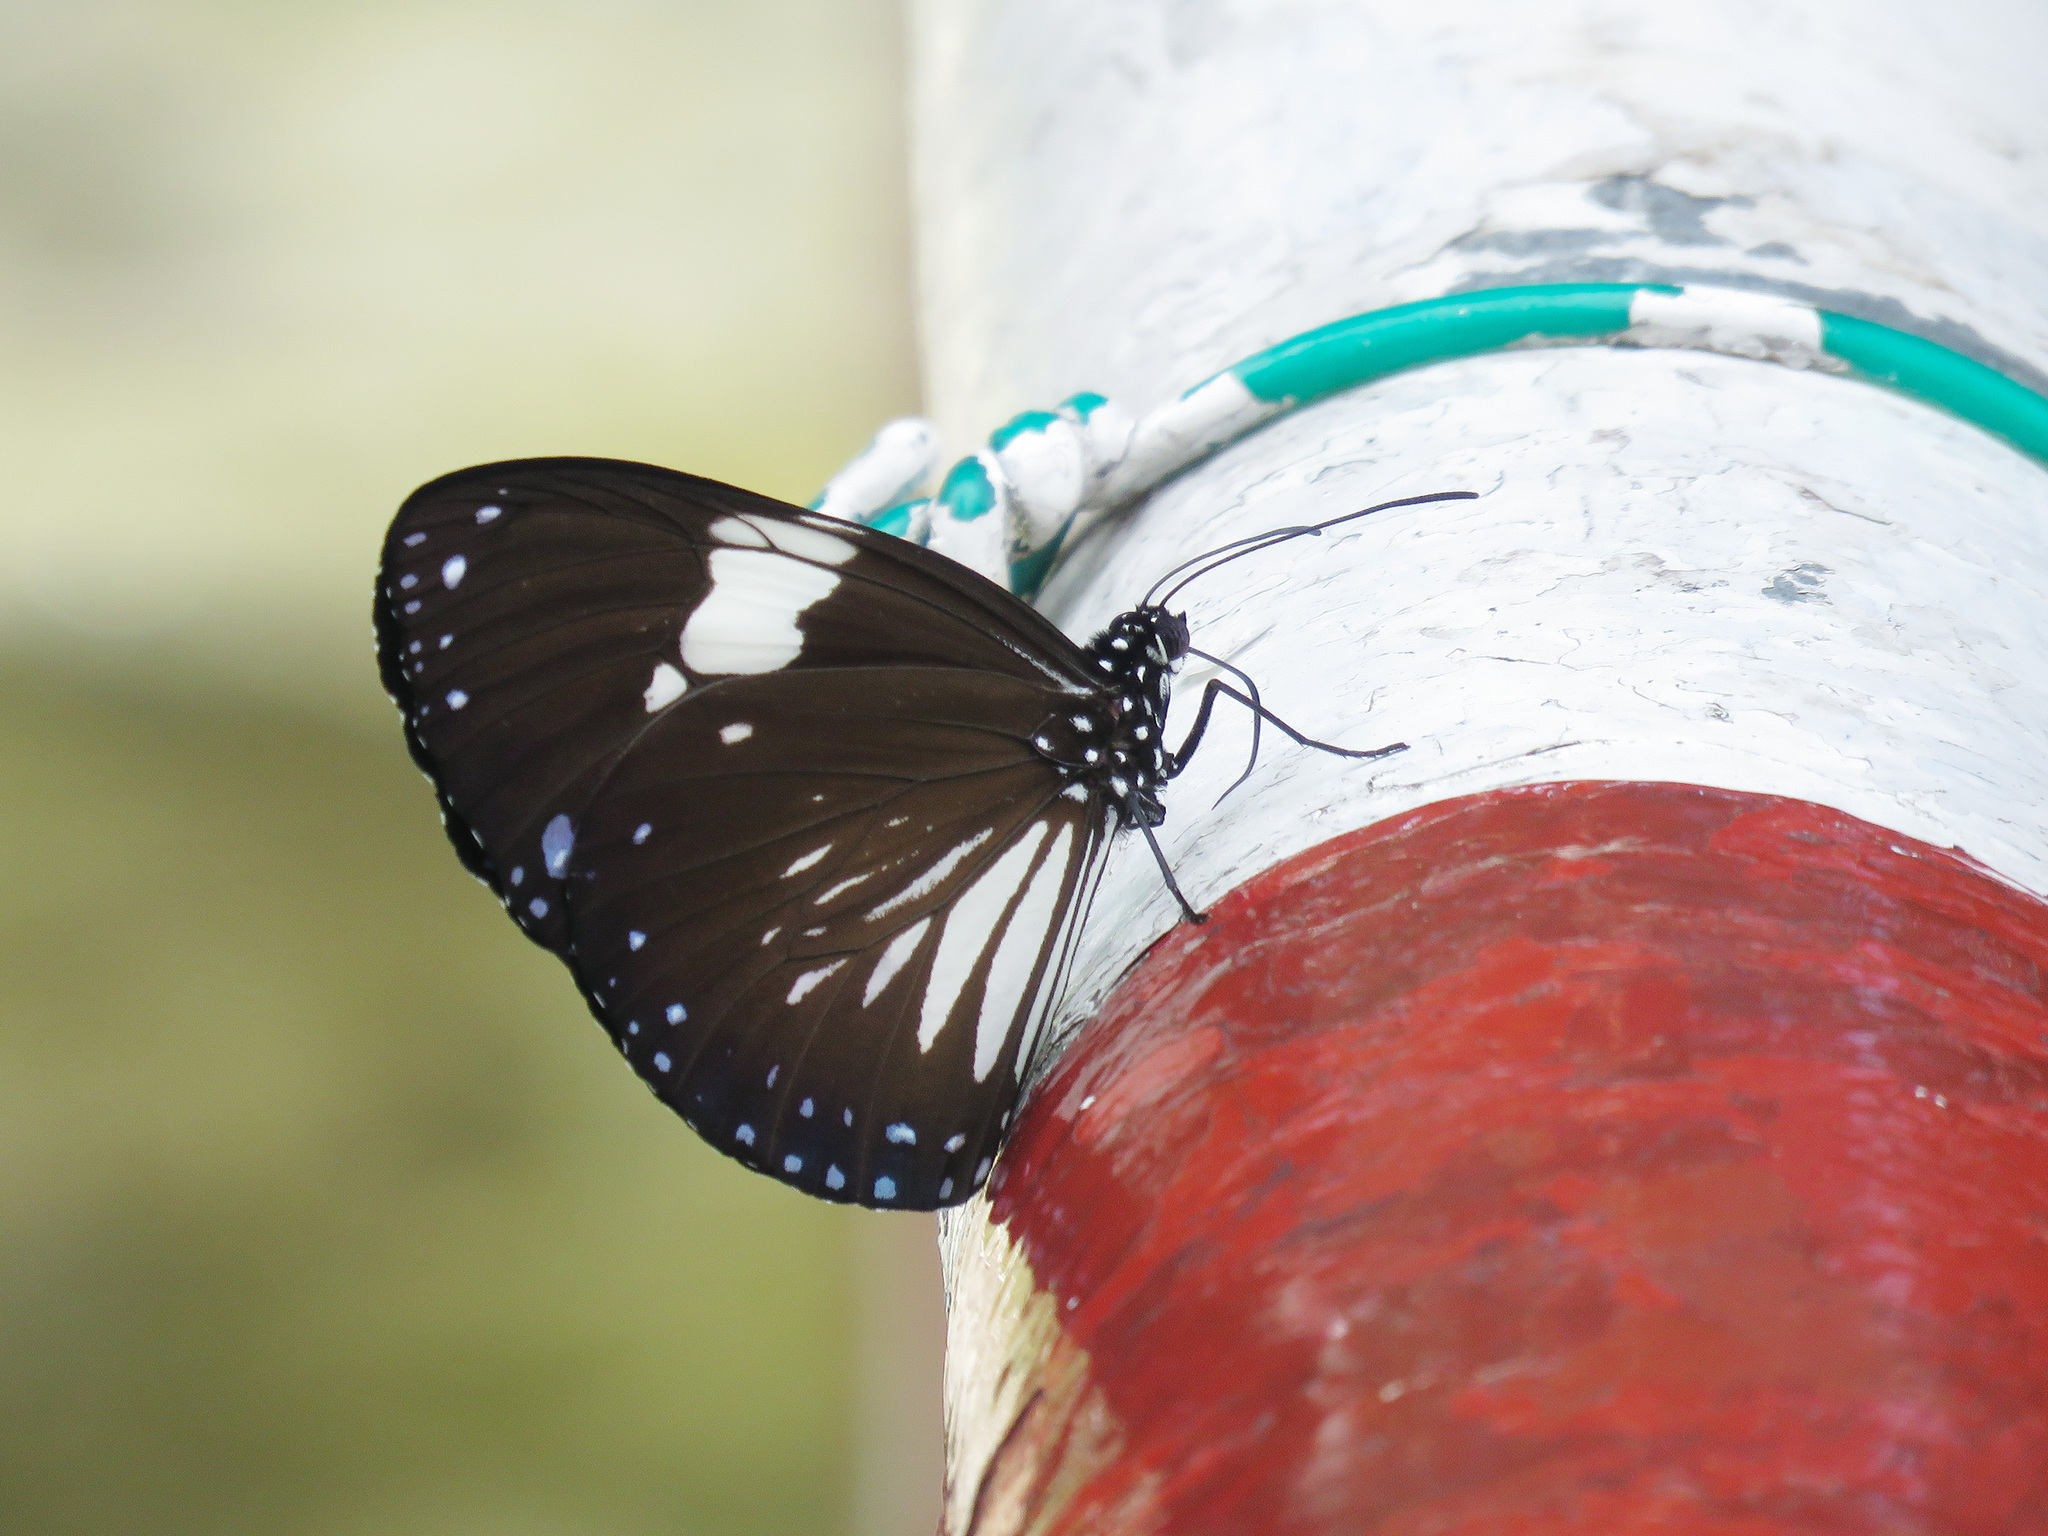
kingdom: Animalia
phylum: Arthropoda
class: Insecta
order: Lepidoptera
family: Nymphalidae
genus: Euploea
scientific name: Euploea radamanthus
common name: Magpie crow butterfly
